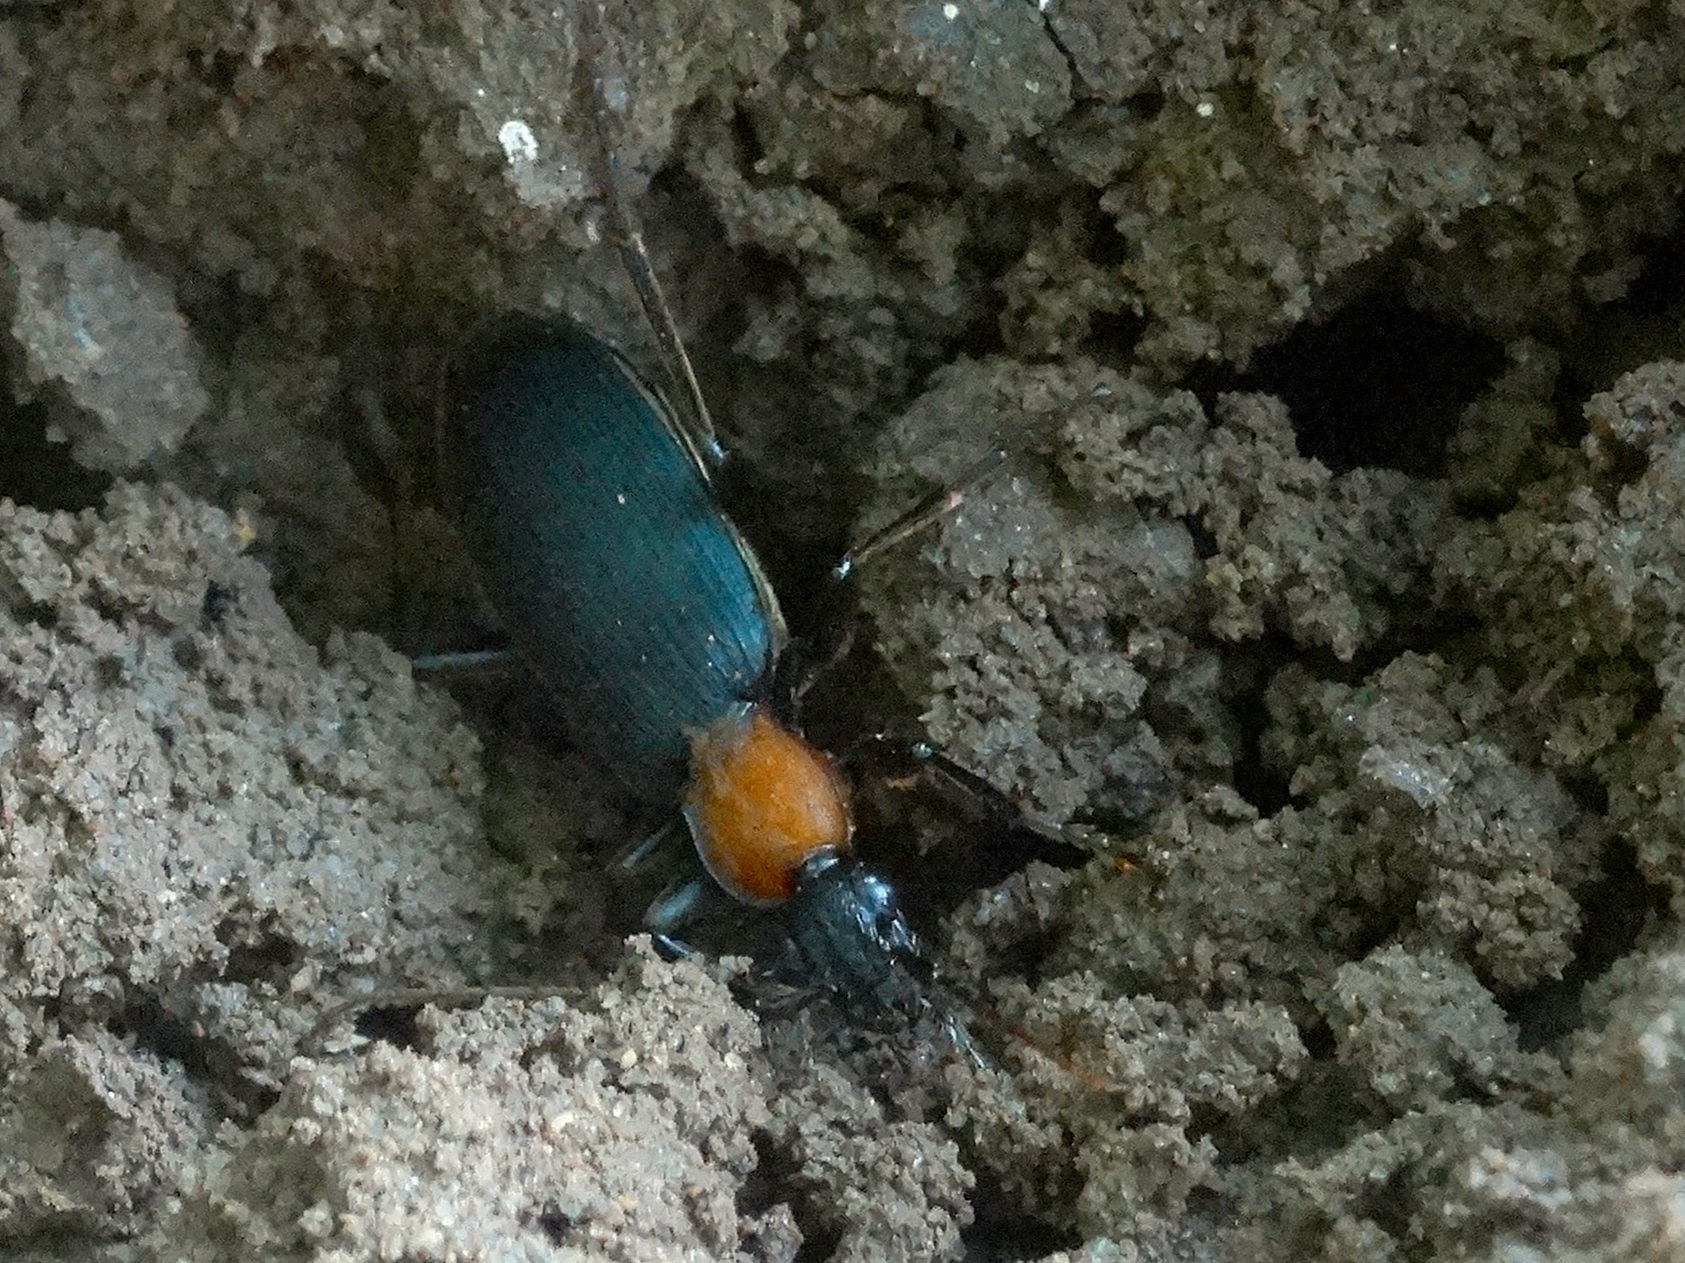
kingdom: Animalia
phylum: Arthropoda
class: Insecta
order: Coleoptera
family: Carabidae
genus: Galerita
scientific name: Galerita
